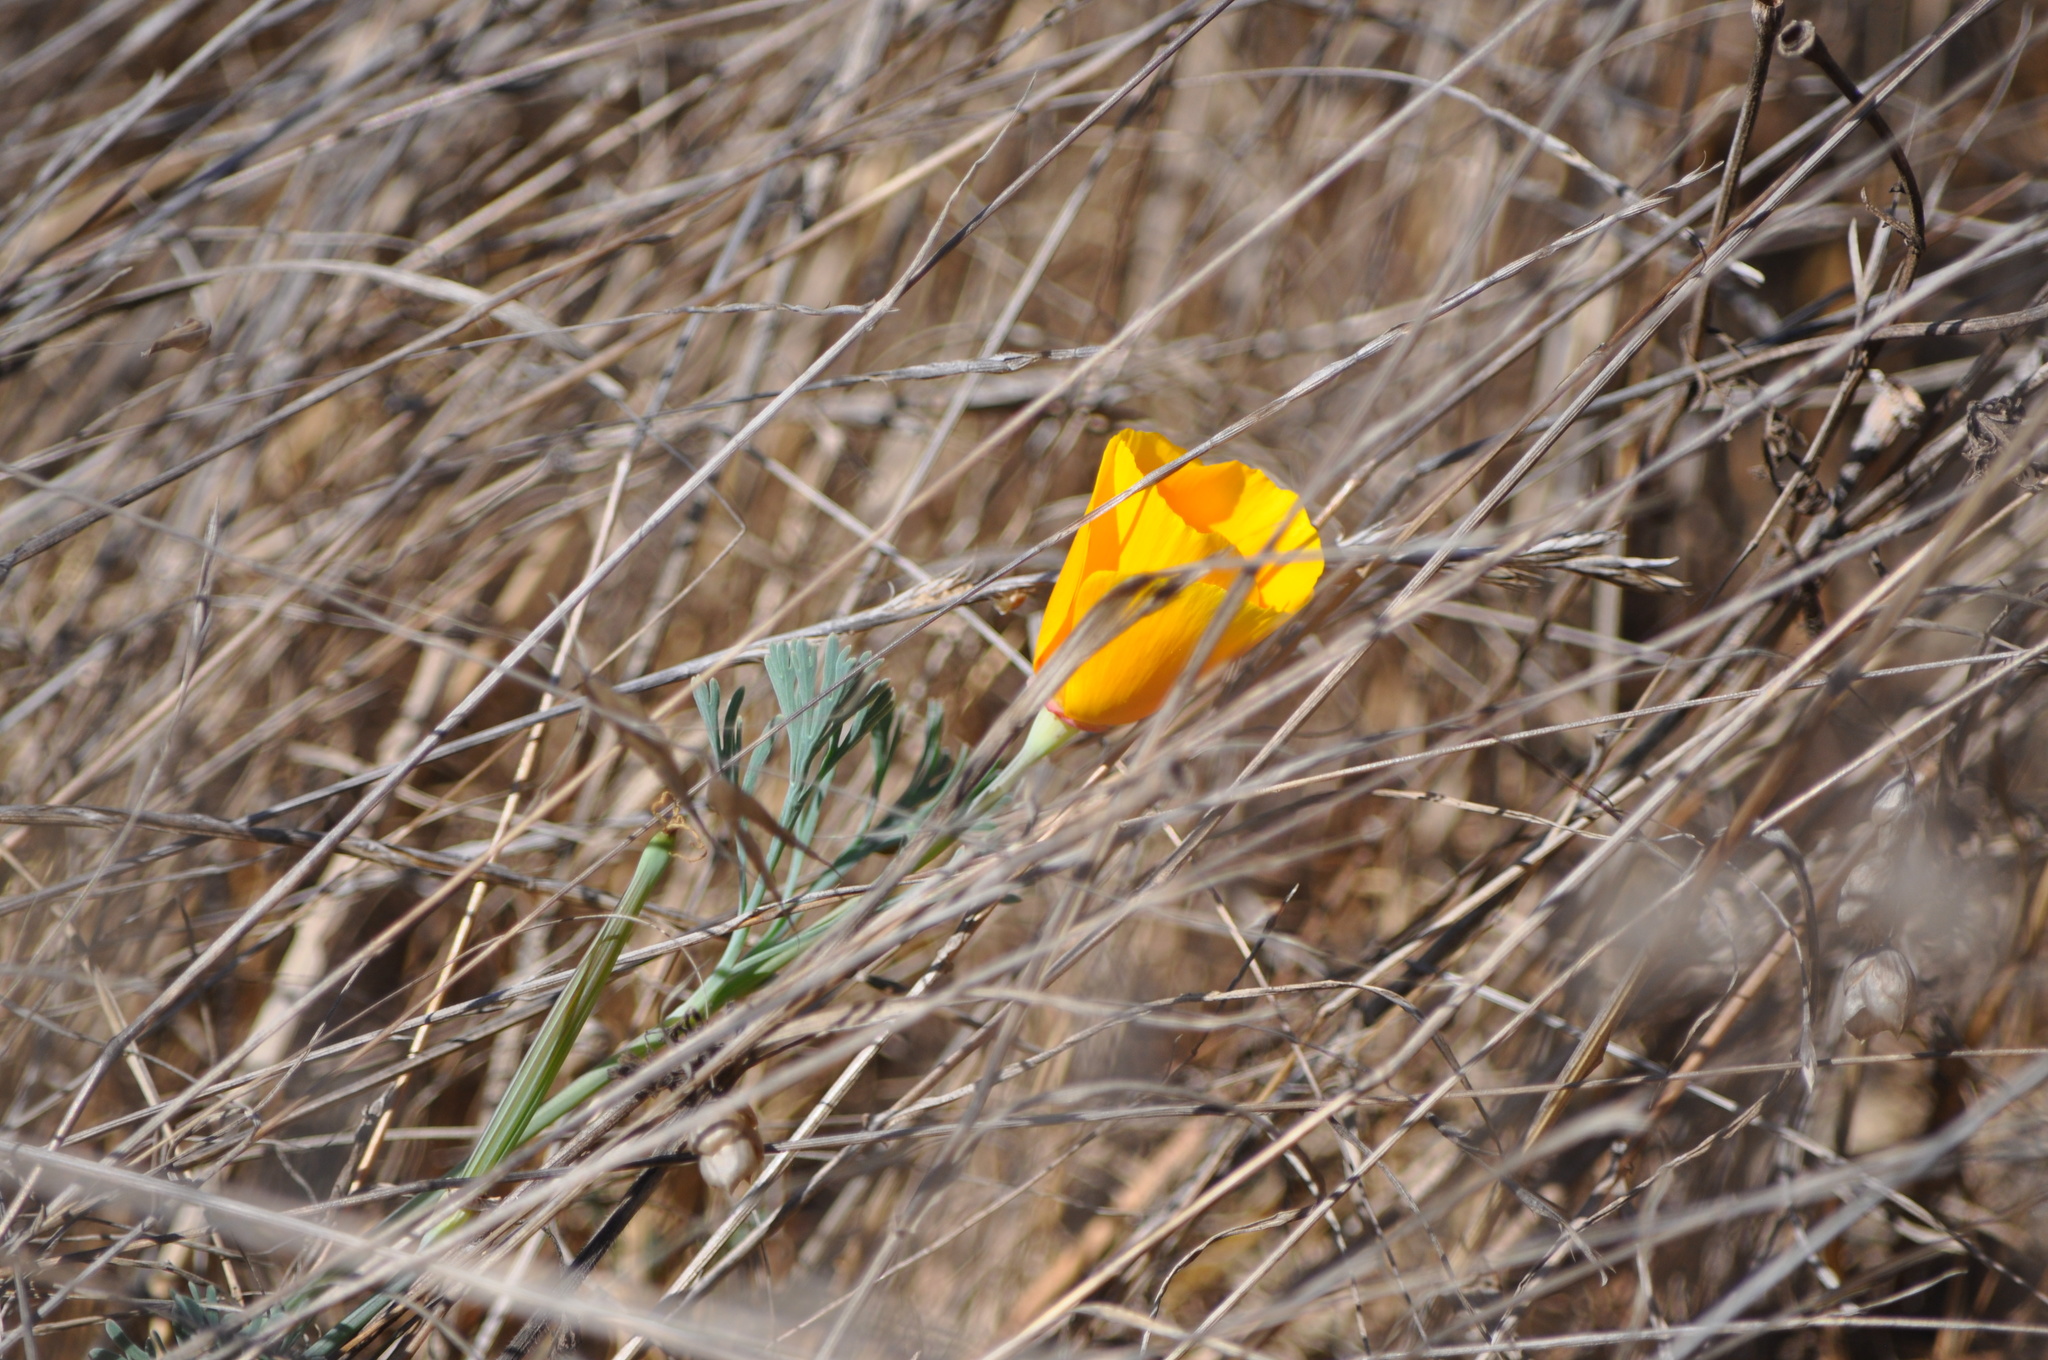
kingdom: Plantae
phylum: Tracheophyta
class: Magnoliopsida
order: Ranunculales
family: Papaveraceae
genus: Eschscholzia
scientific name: Eschscholzia californica
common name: California poppy
